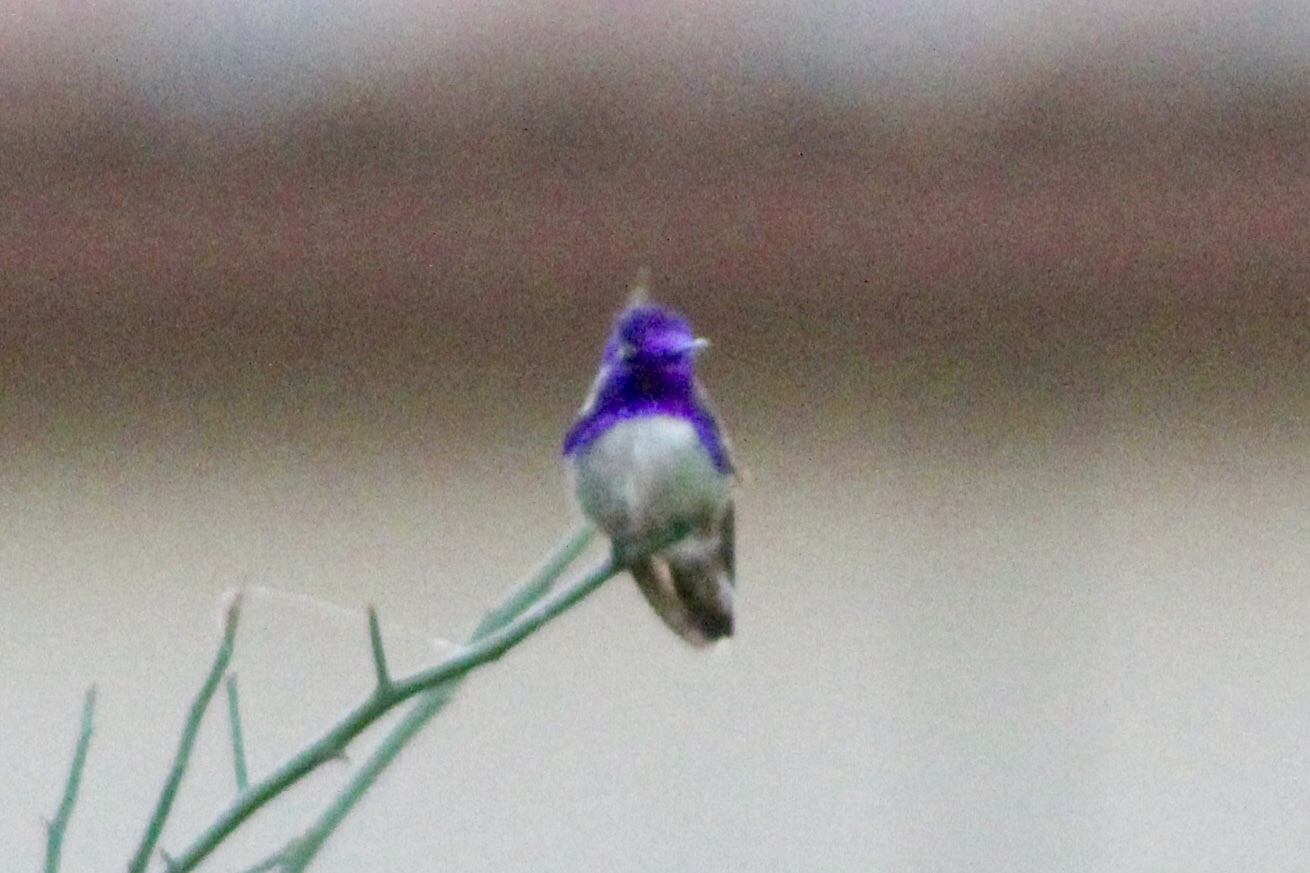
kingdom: Animalia
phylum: Chordata
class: Aves
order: Apodiformes
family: Trochilidae
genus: Calypte
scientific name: Calypte costae
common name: Costa's hummingbird
